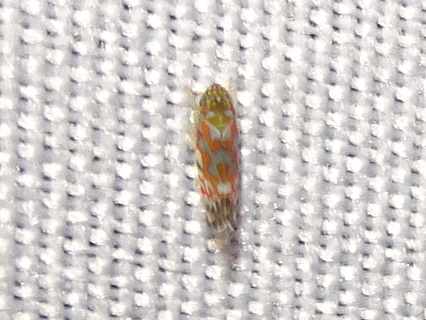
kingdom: Animalia
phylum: Arthropoda
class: Insecta
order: Hemiptera
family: Cicadellidae
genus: Erythroneura
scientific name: Erythroneura rubrella
